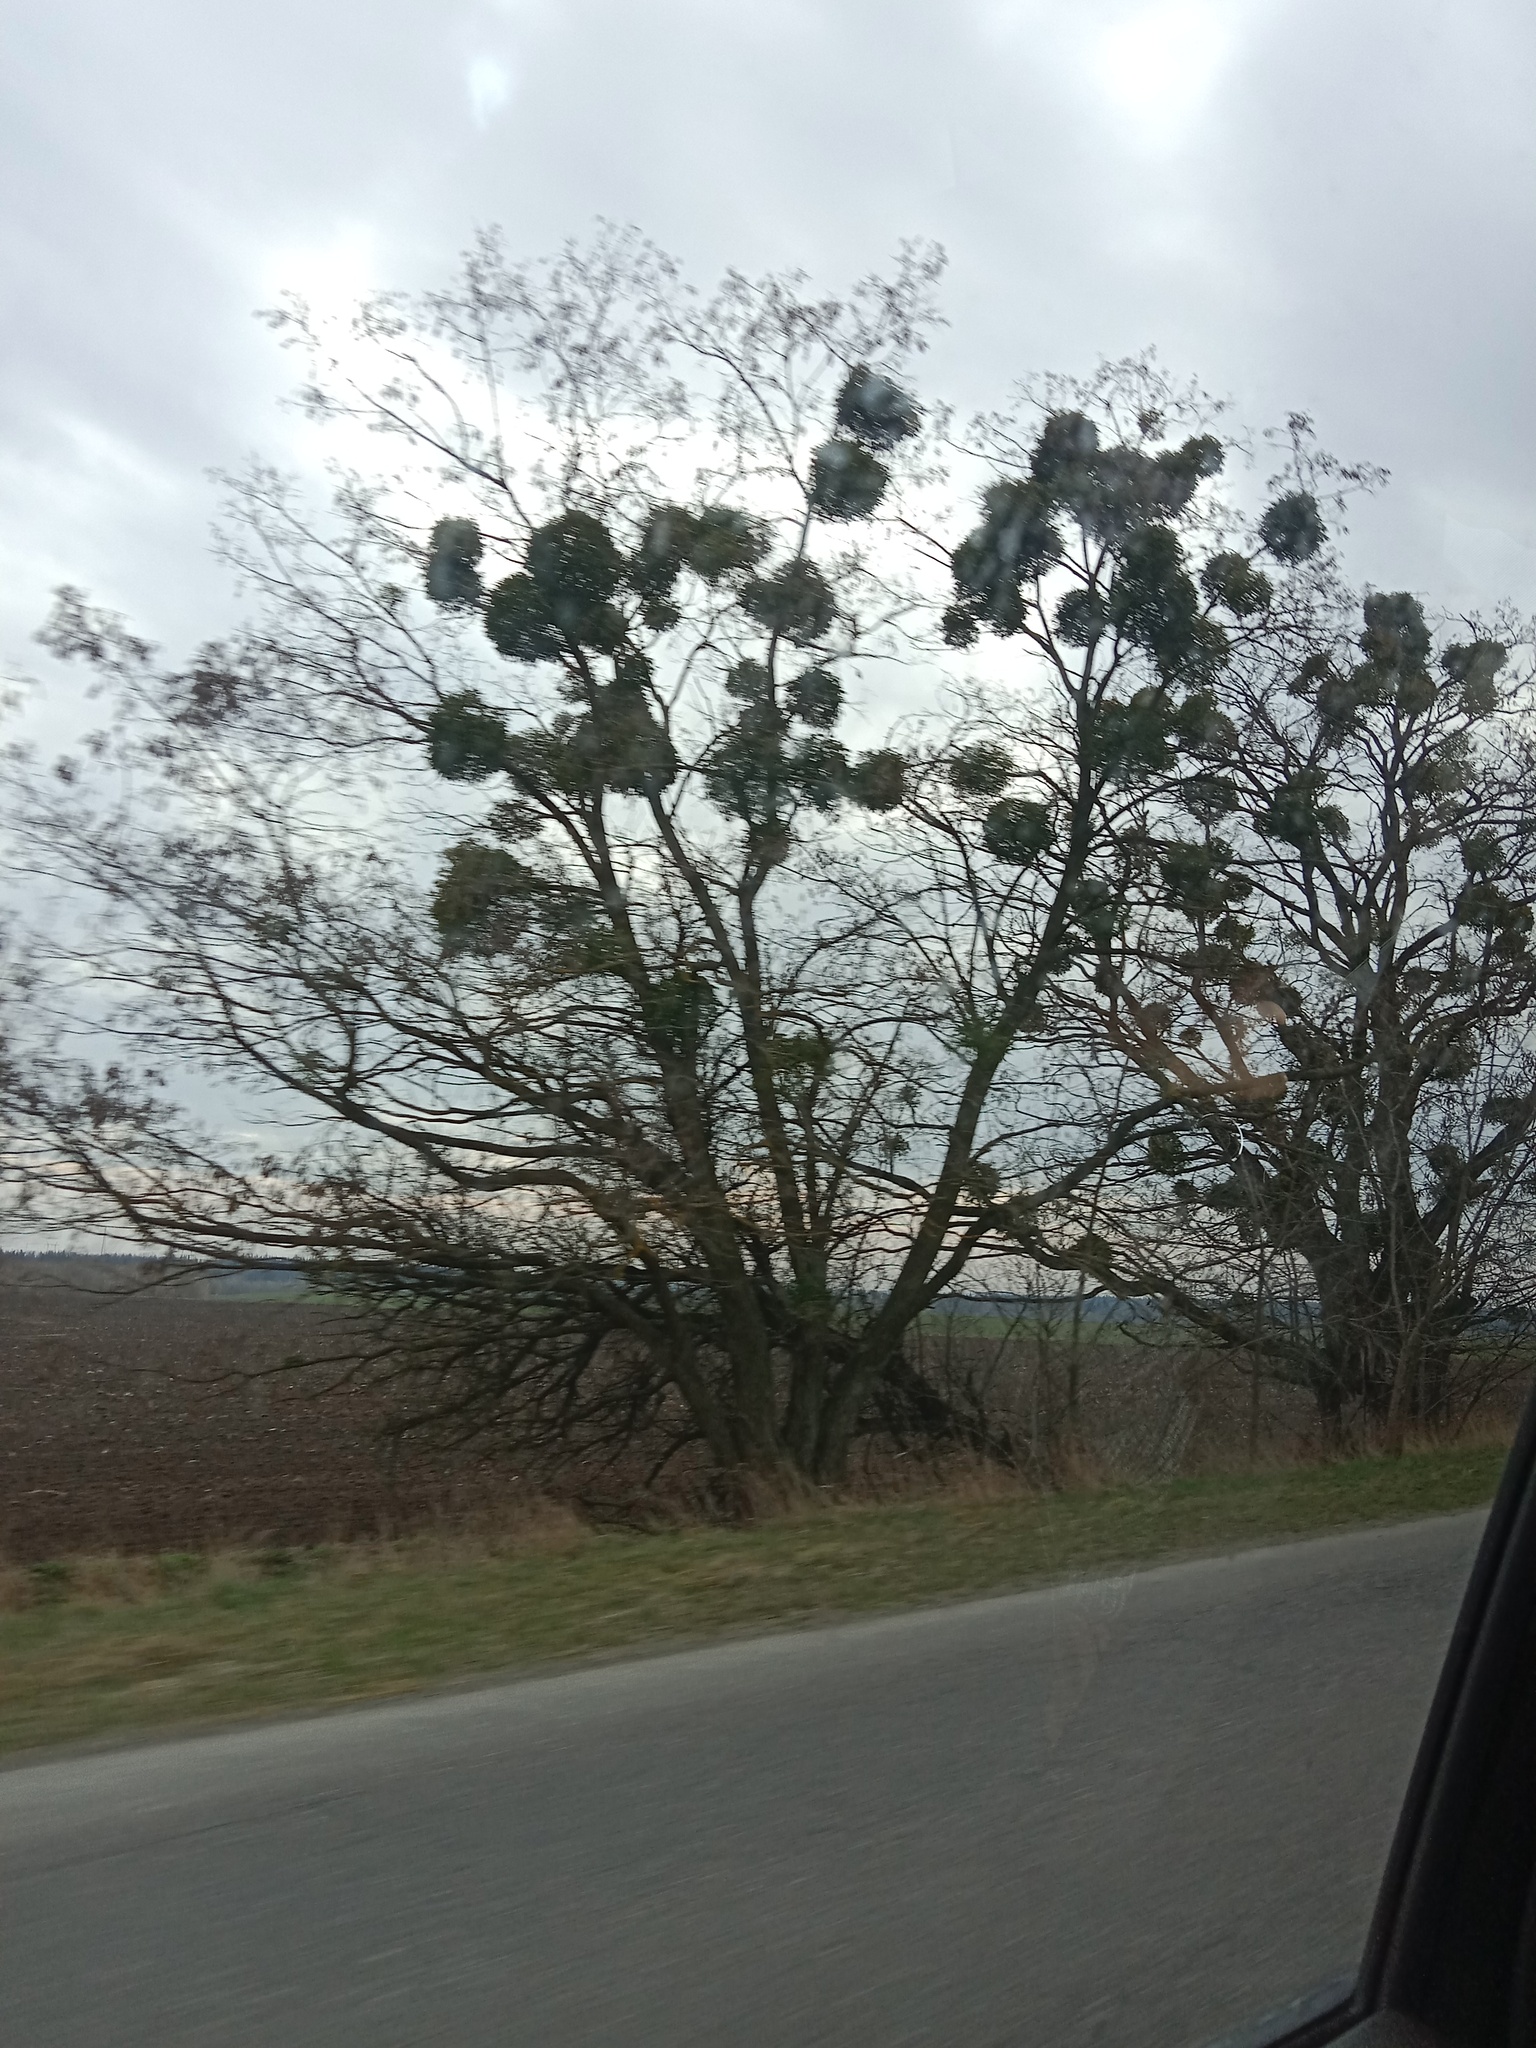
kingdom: Plantae
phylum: Tracheophyta
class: Magnoliopsida
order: Santalales
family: Viscaceae
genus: Viscum
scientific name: Viscum album
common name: Mistletoe
